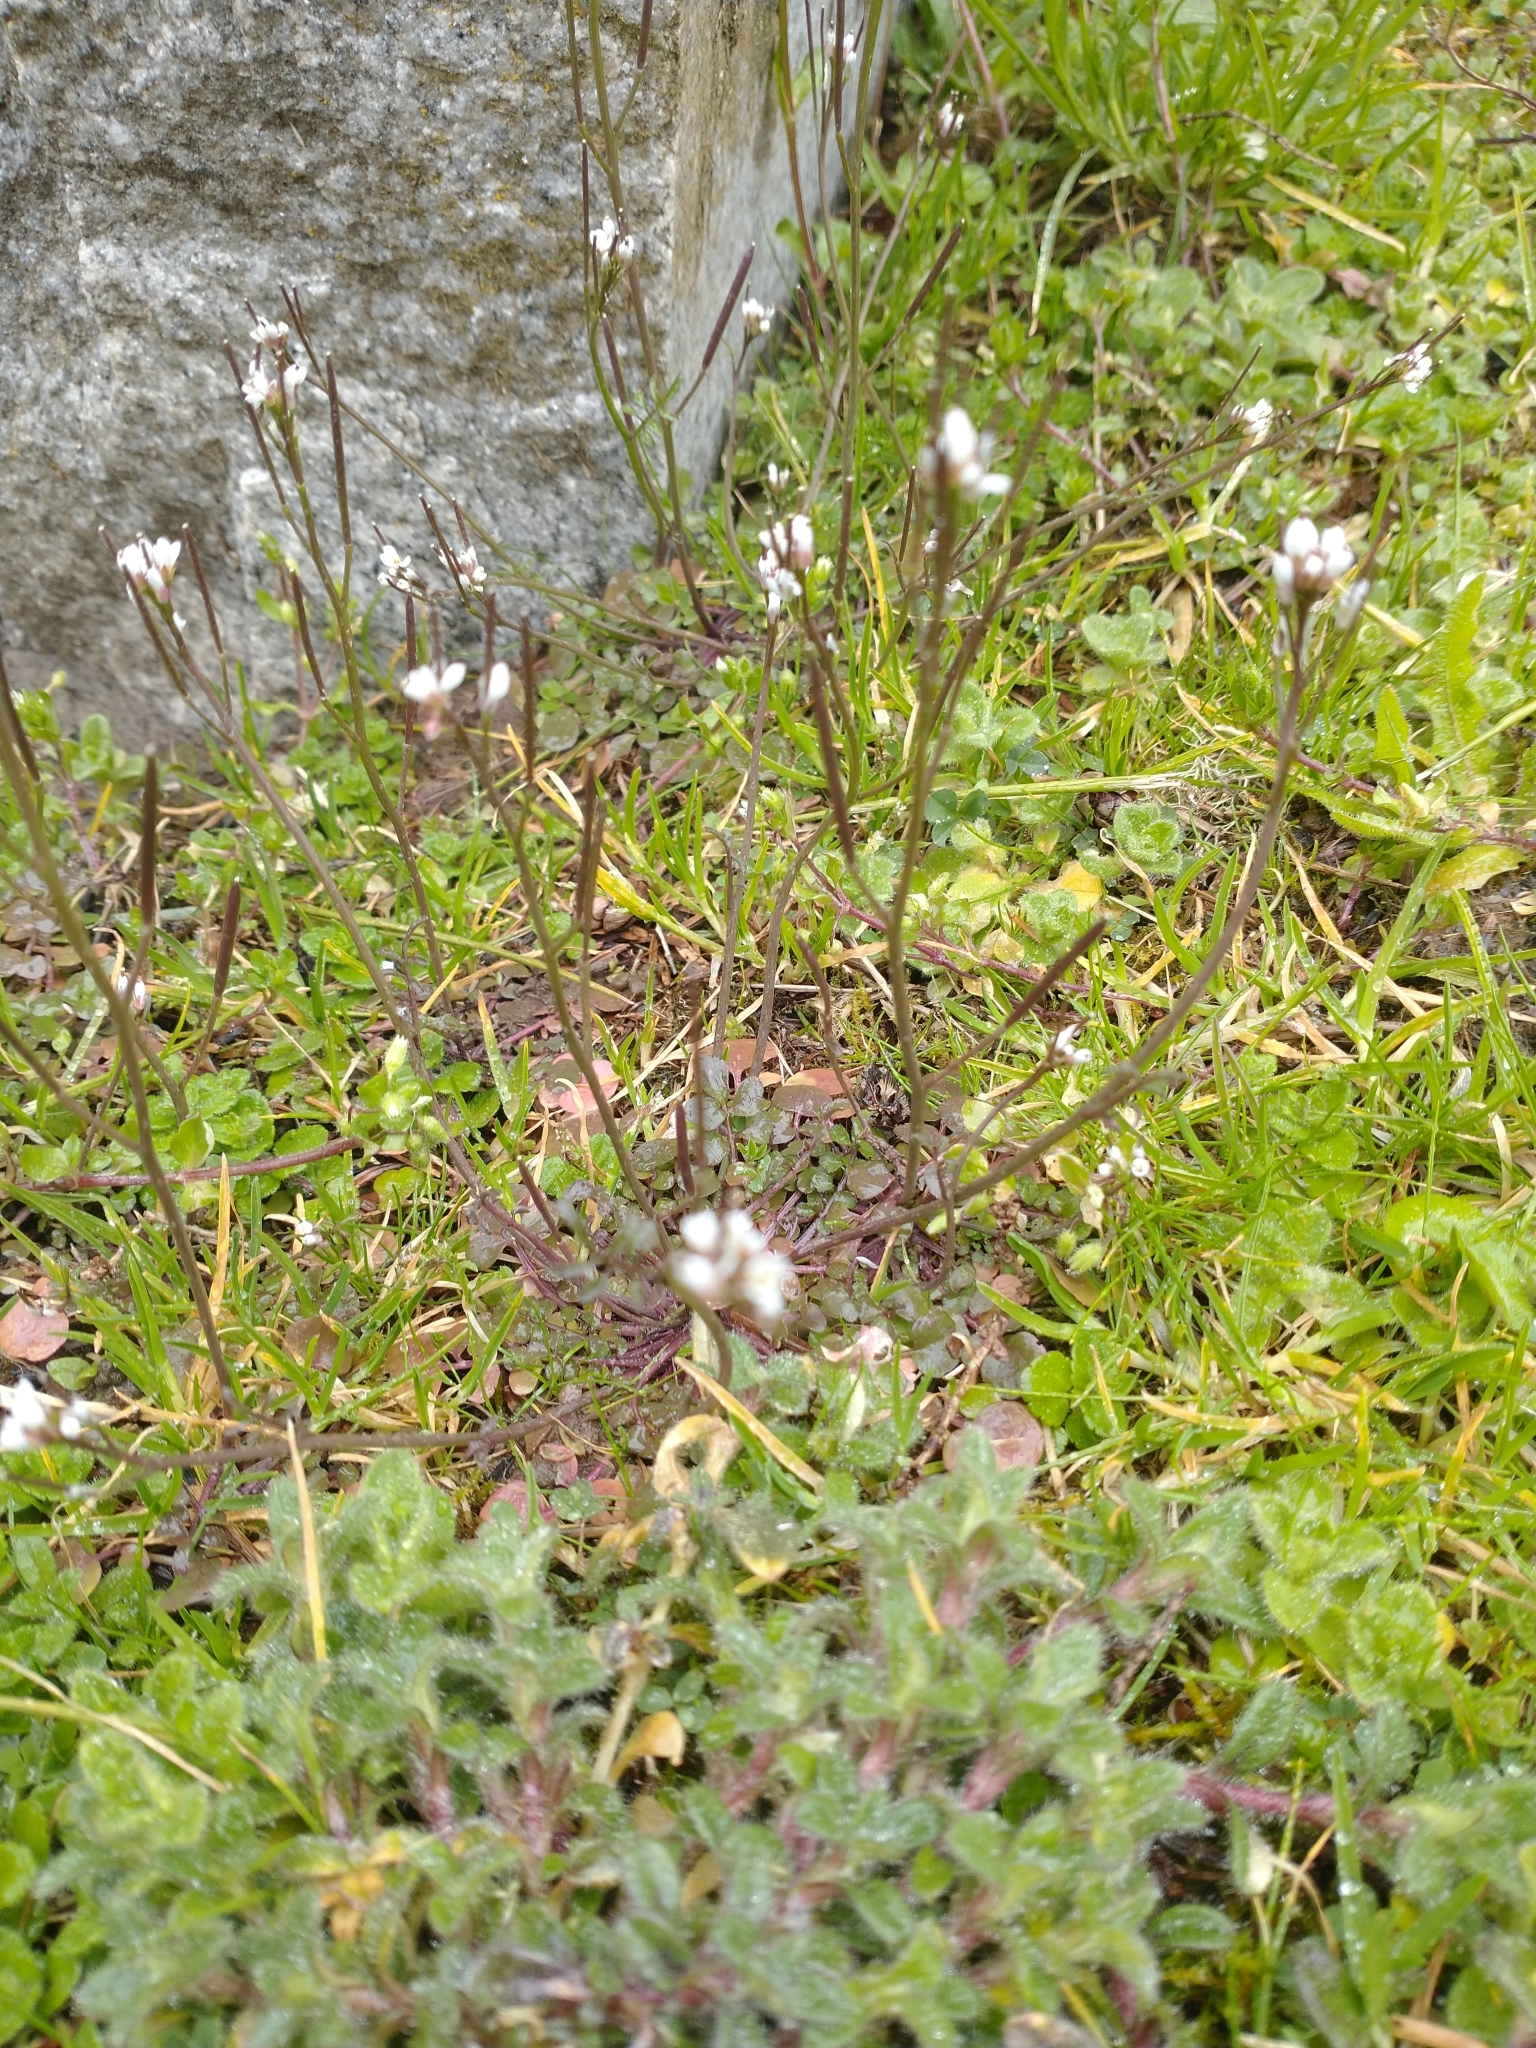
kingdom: Plantae
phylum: Tracheophyta
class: Magnoliopsida
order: Brassicales
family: Brassicaceae
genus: Cardamine
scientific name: Cardamine hirsuta
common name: Hairy bittercress
